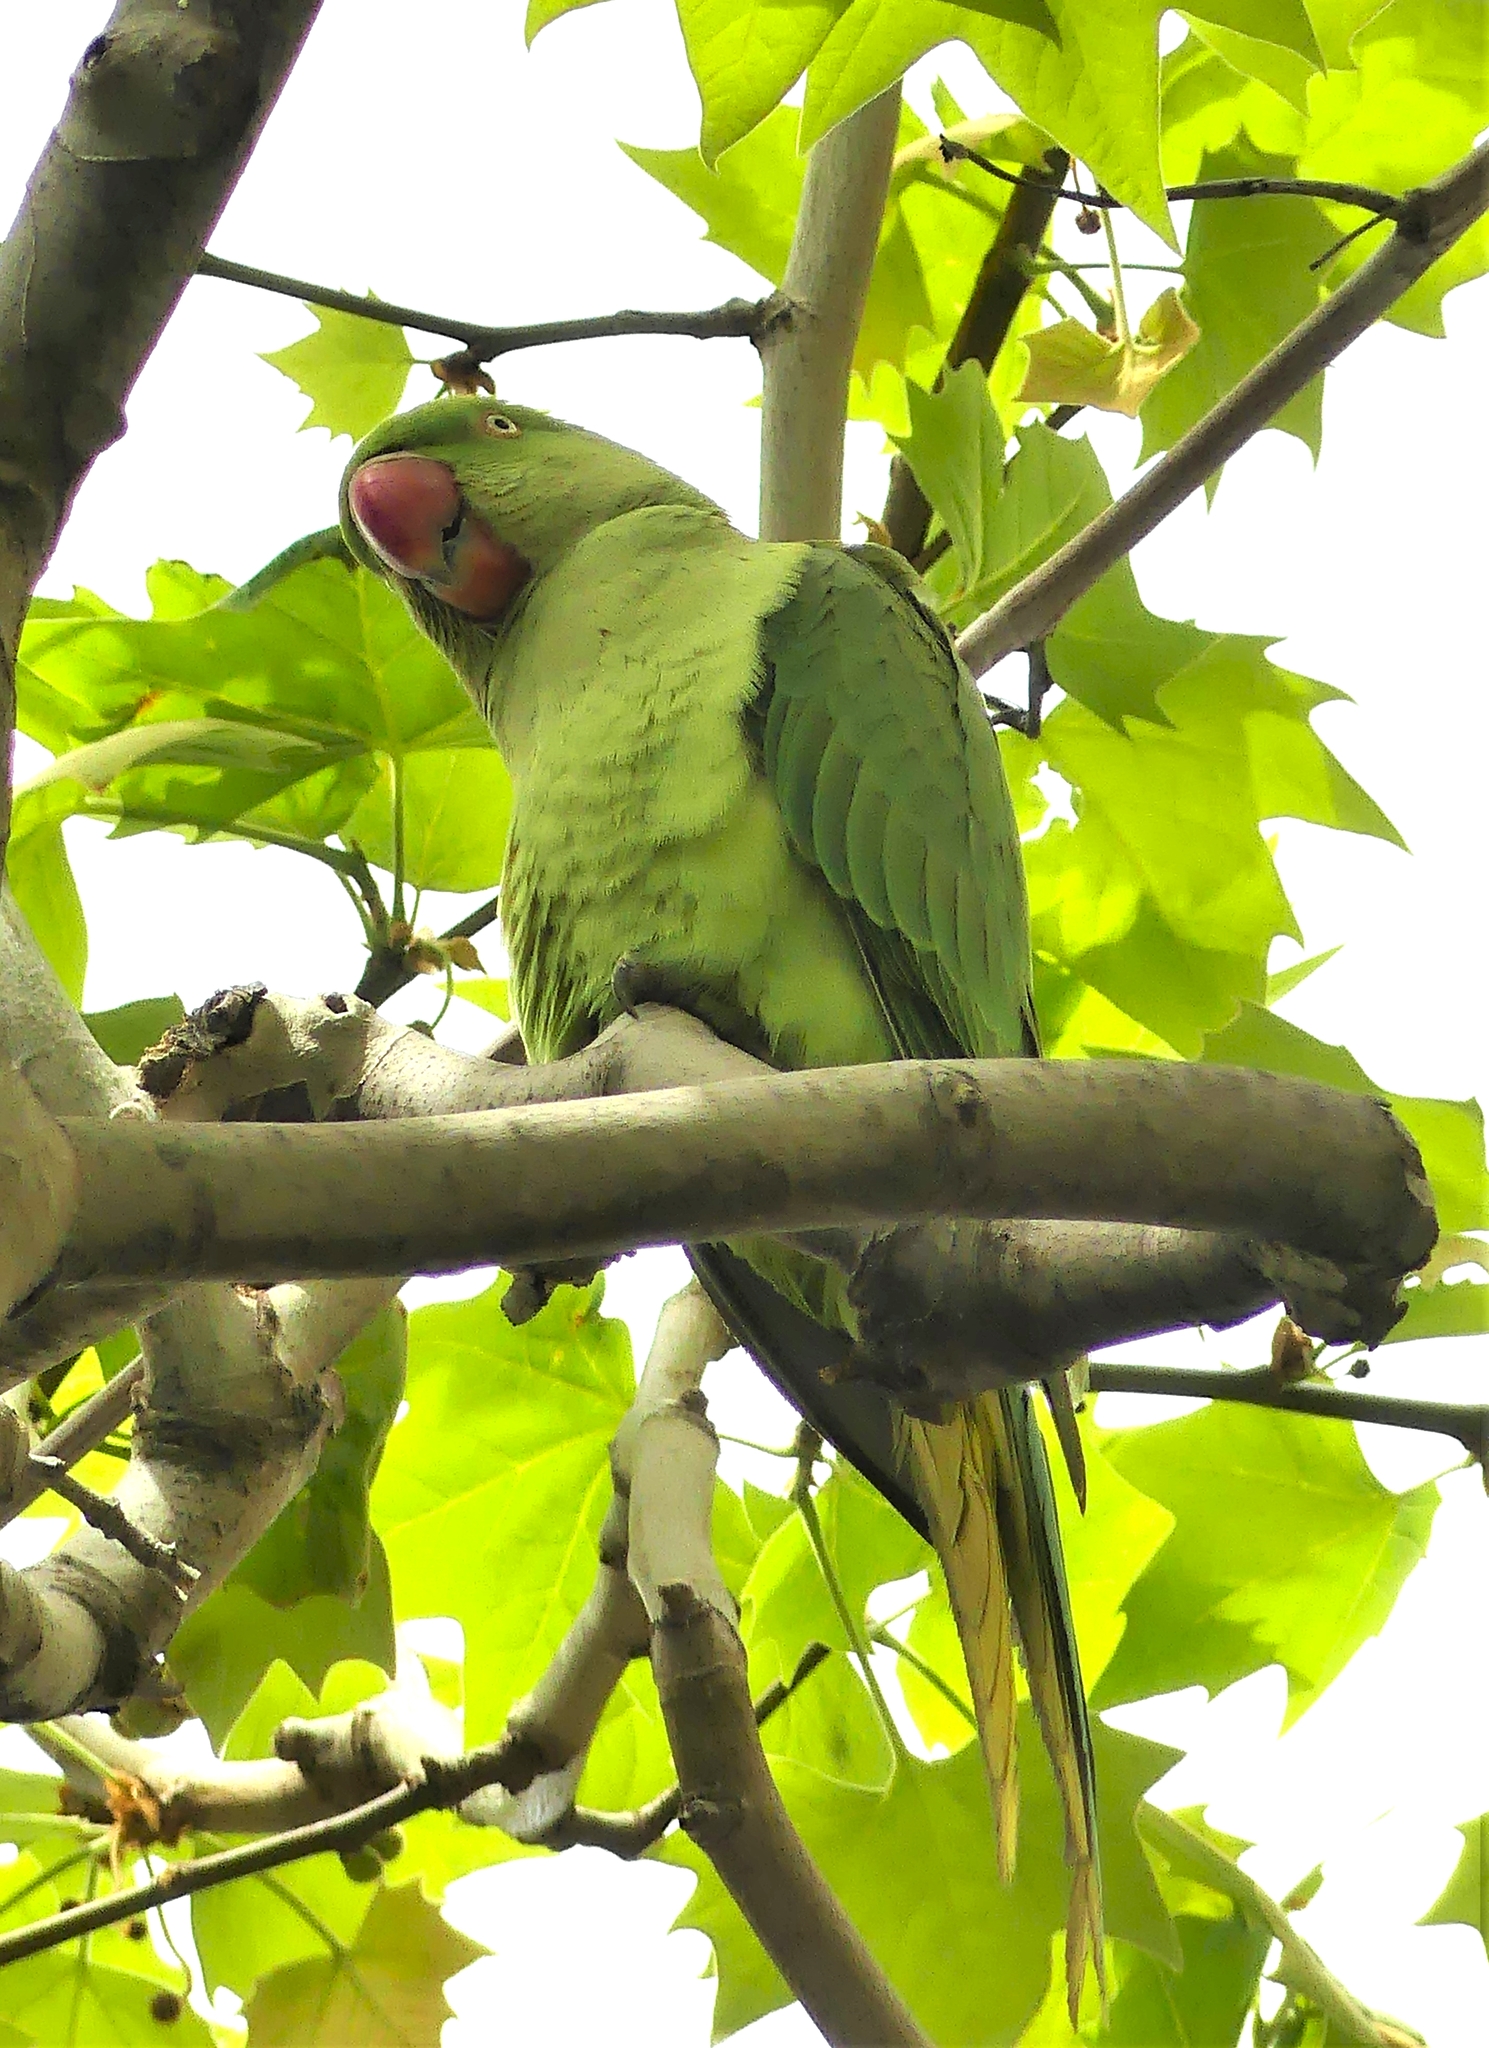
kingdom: Animalia
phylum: Chordata
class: Aves
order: Psittaciformes
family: Psittacidae
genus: Psittacula
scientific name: Psittacula eupatria
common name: Alexandrine parakeet
